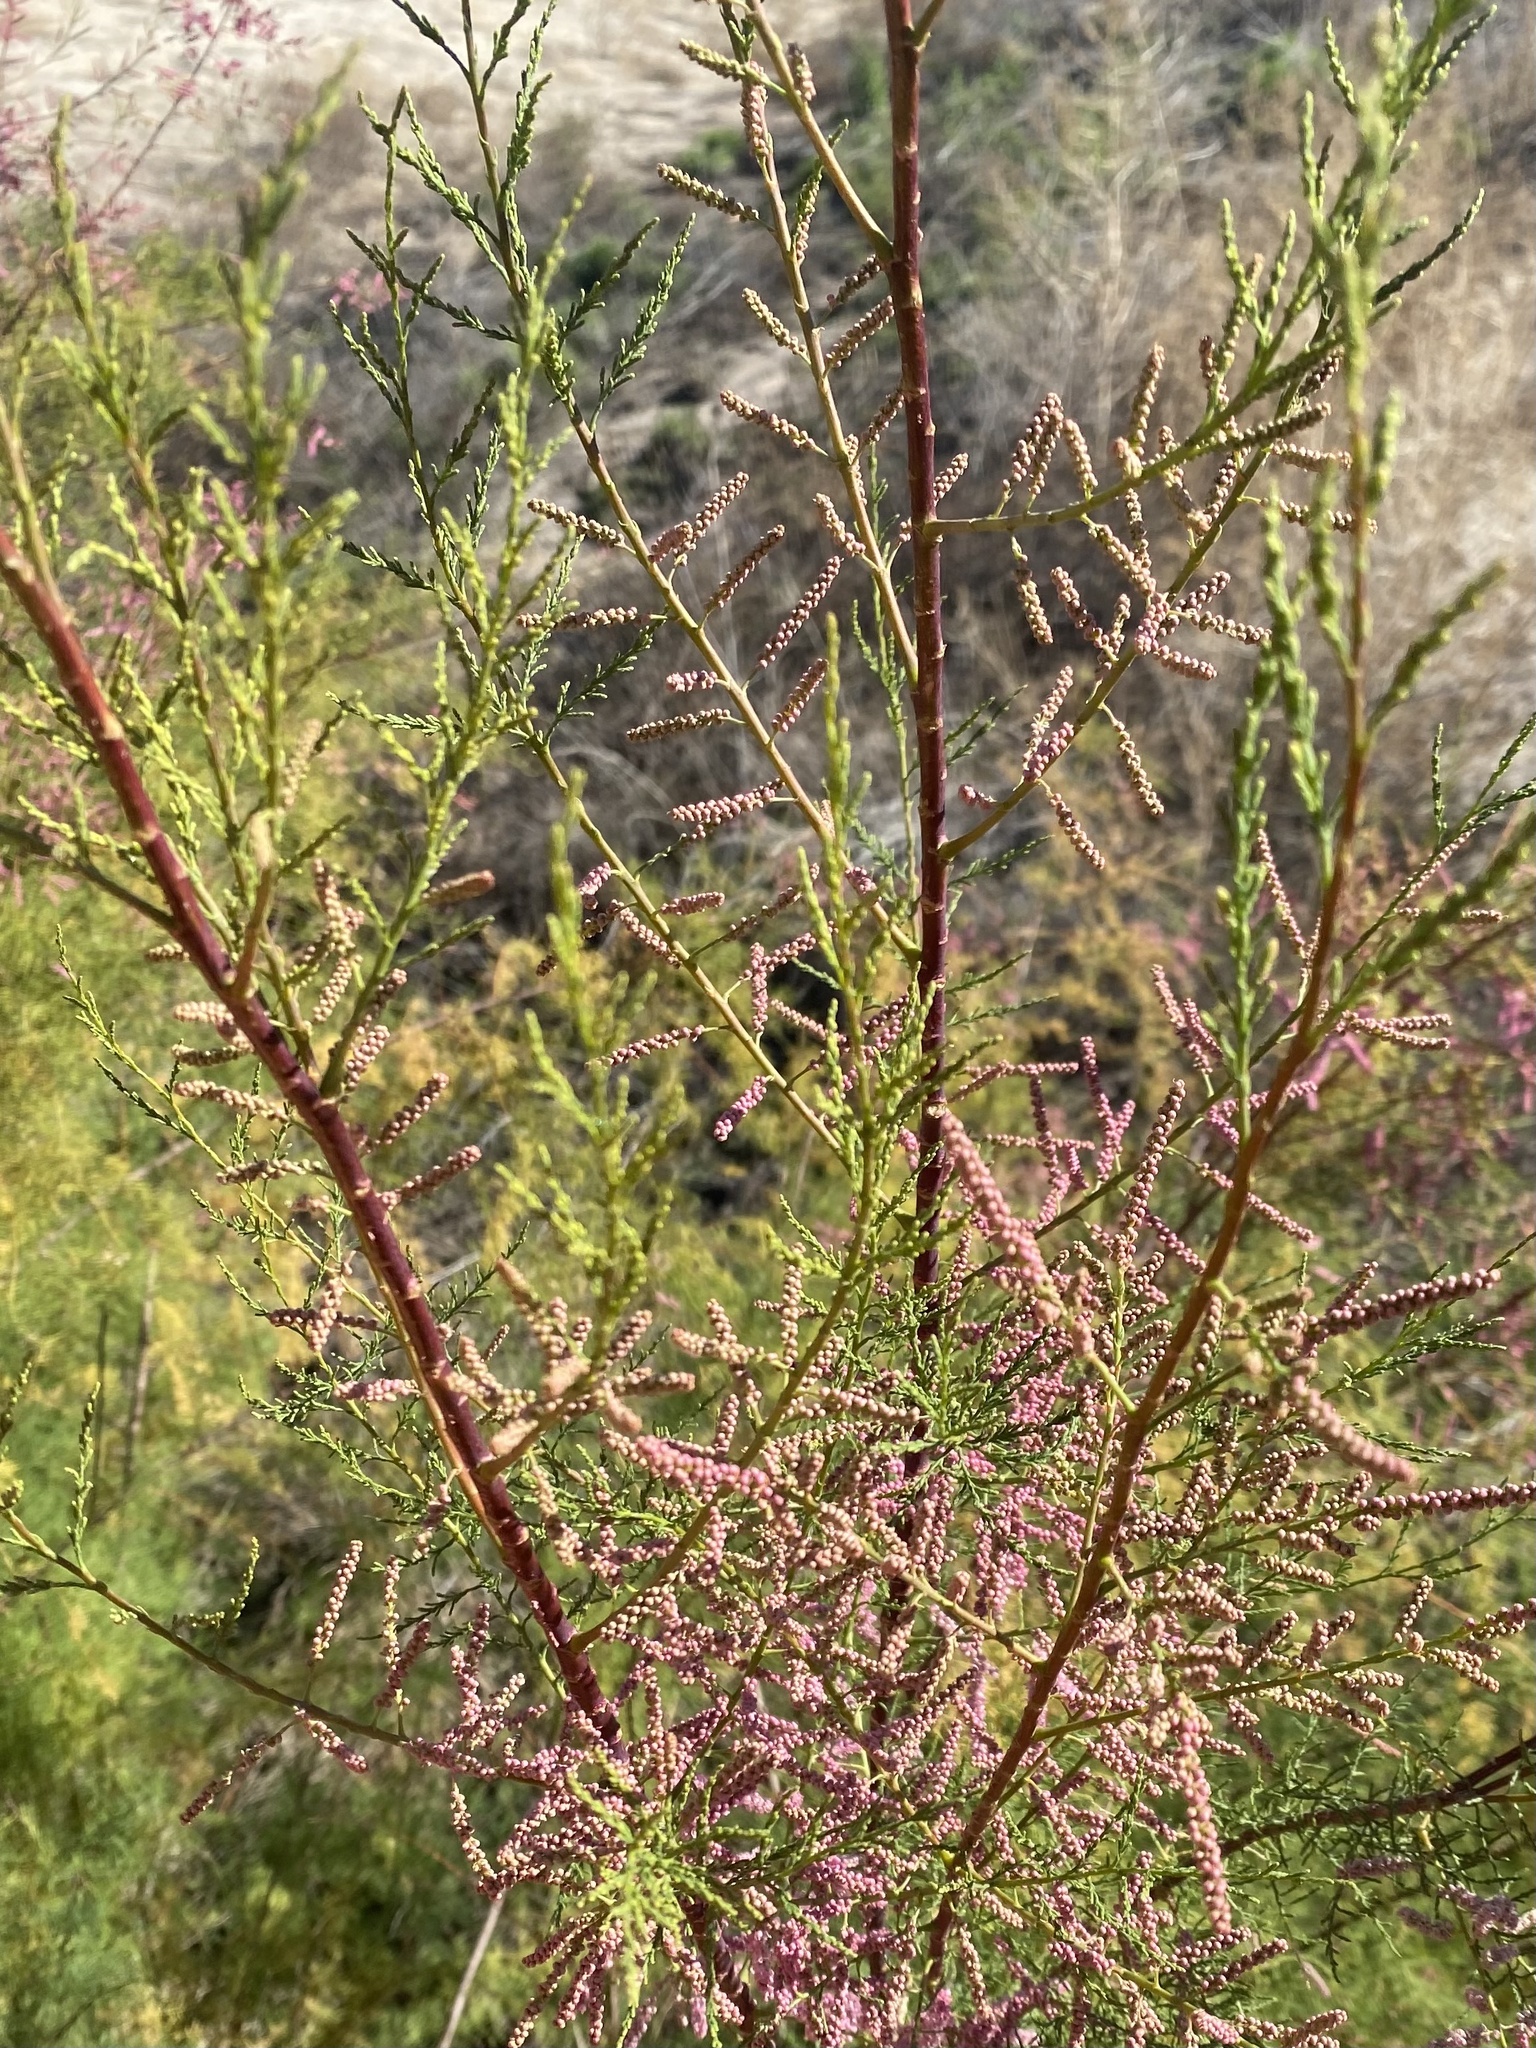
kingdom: Plantae
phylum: Tracheophyta
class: Magnoliopsida
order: Caryophyllales
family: Tamaricaceae
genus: Tamarix
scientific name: Tamarix ramosissima
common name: Pink tamarisk
